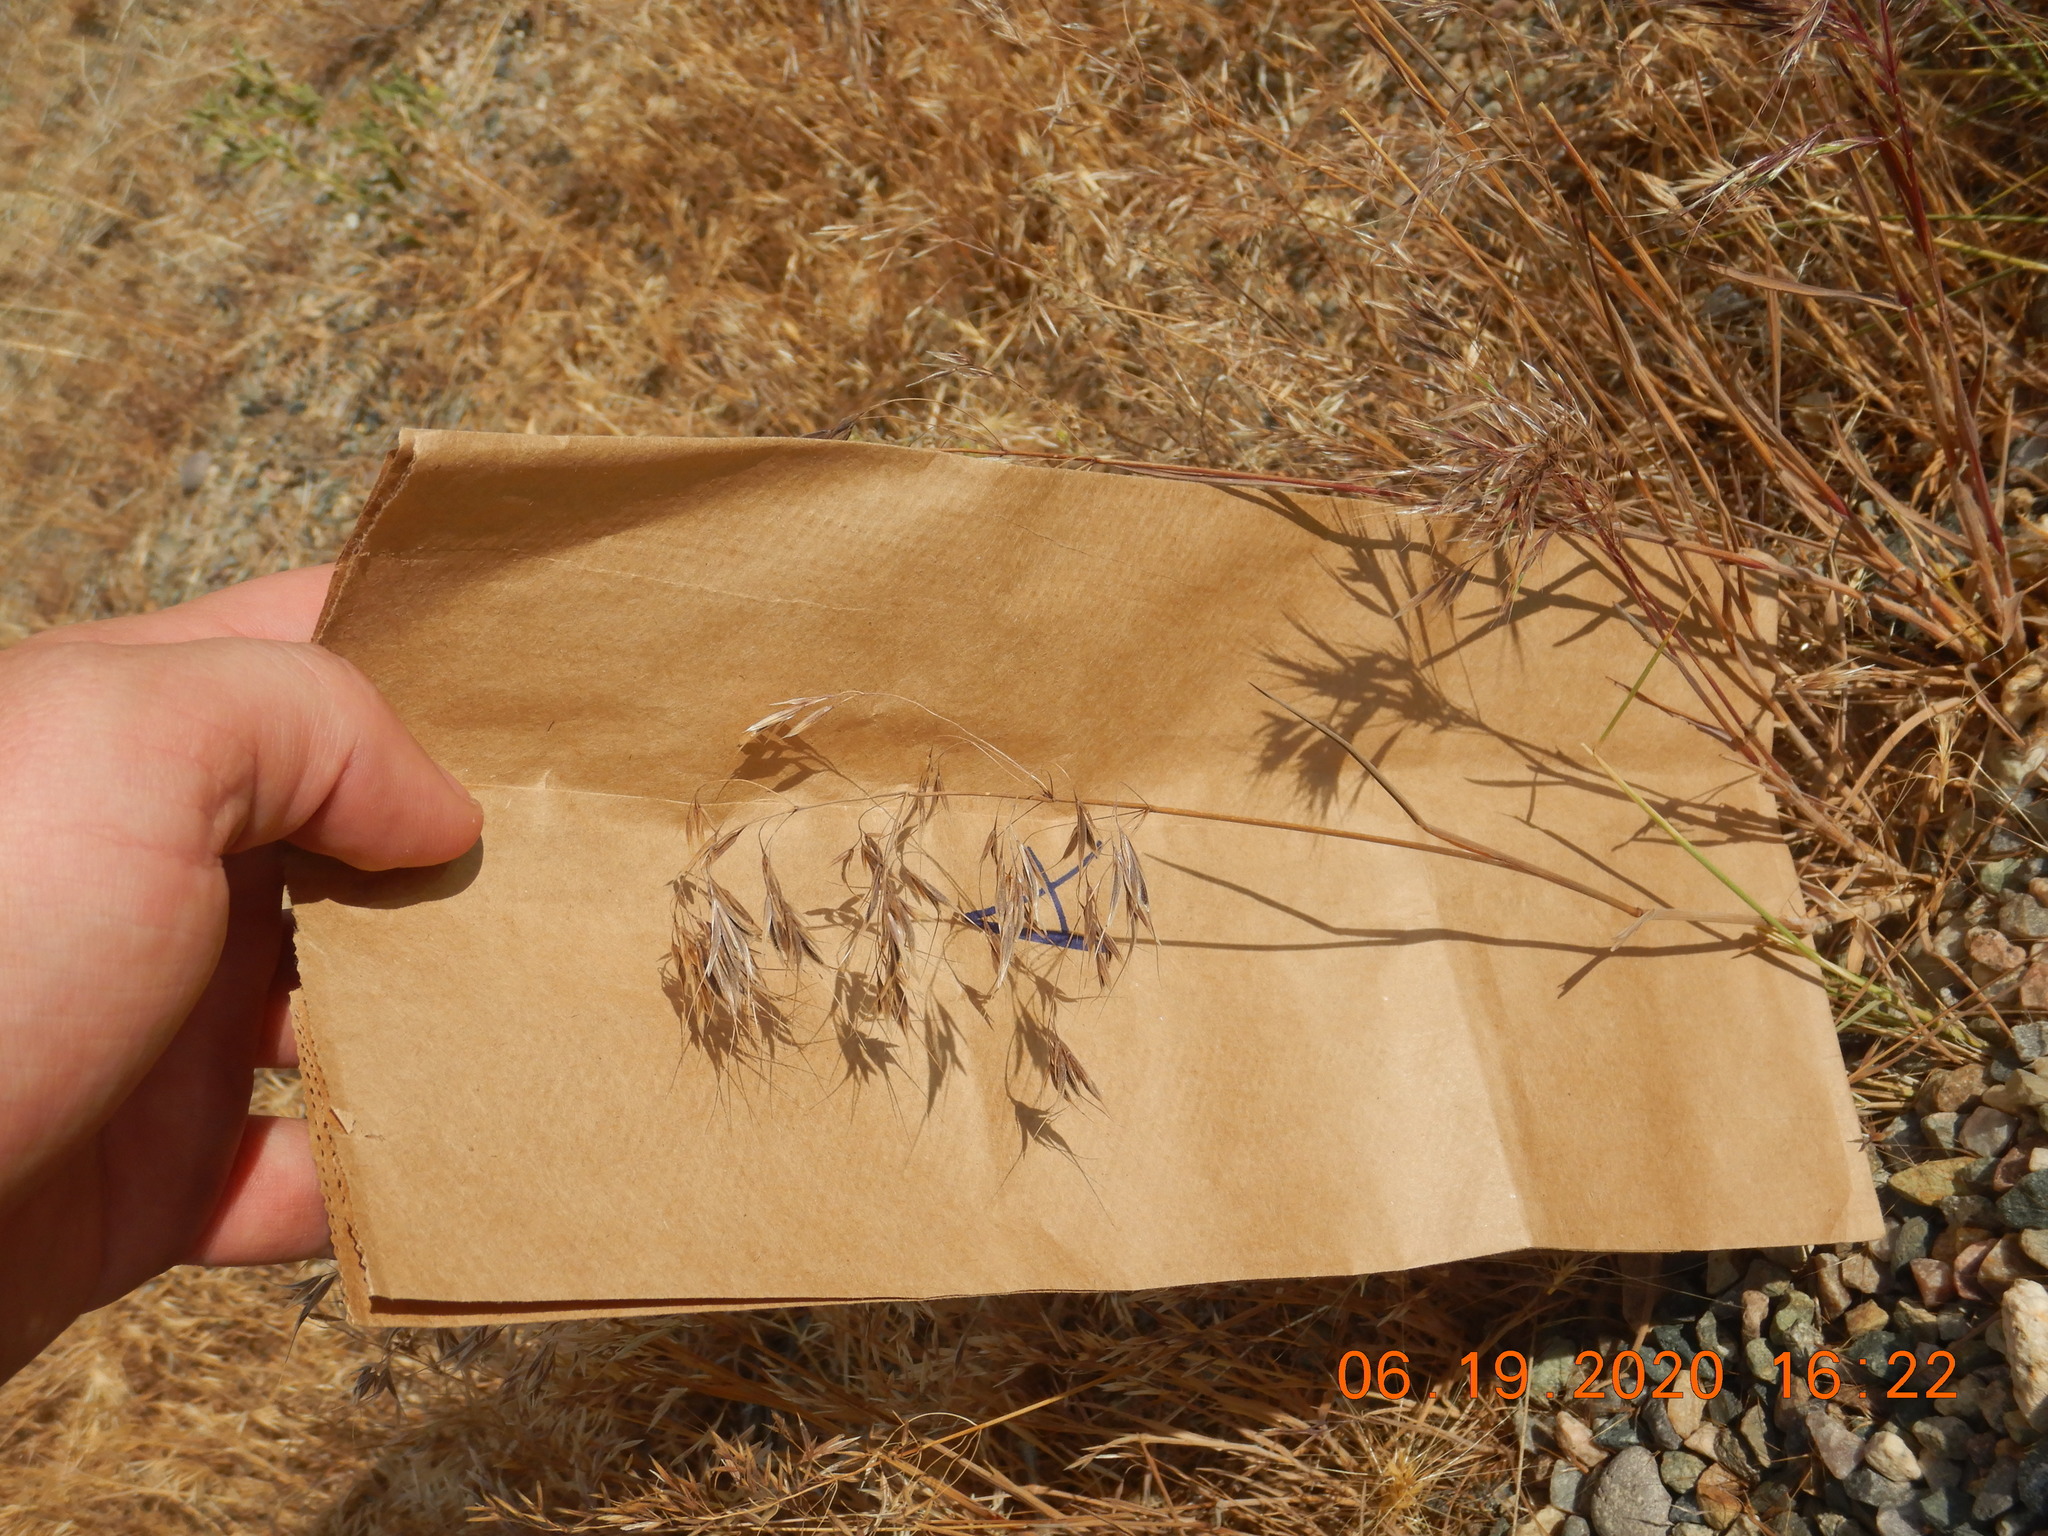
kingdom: Plantae
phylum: Tracheophyta
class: Liliopsida
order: Poales
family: Poaceae
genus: Bromus
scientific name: Bromus tectorum
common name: Cheatgrass
